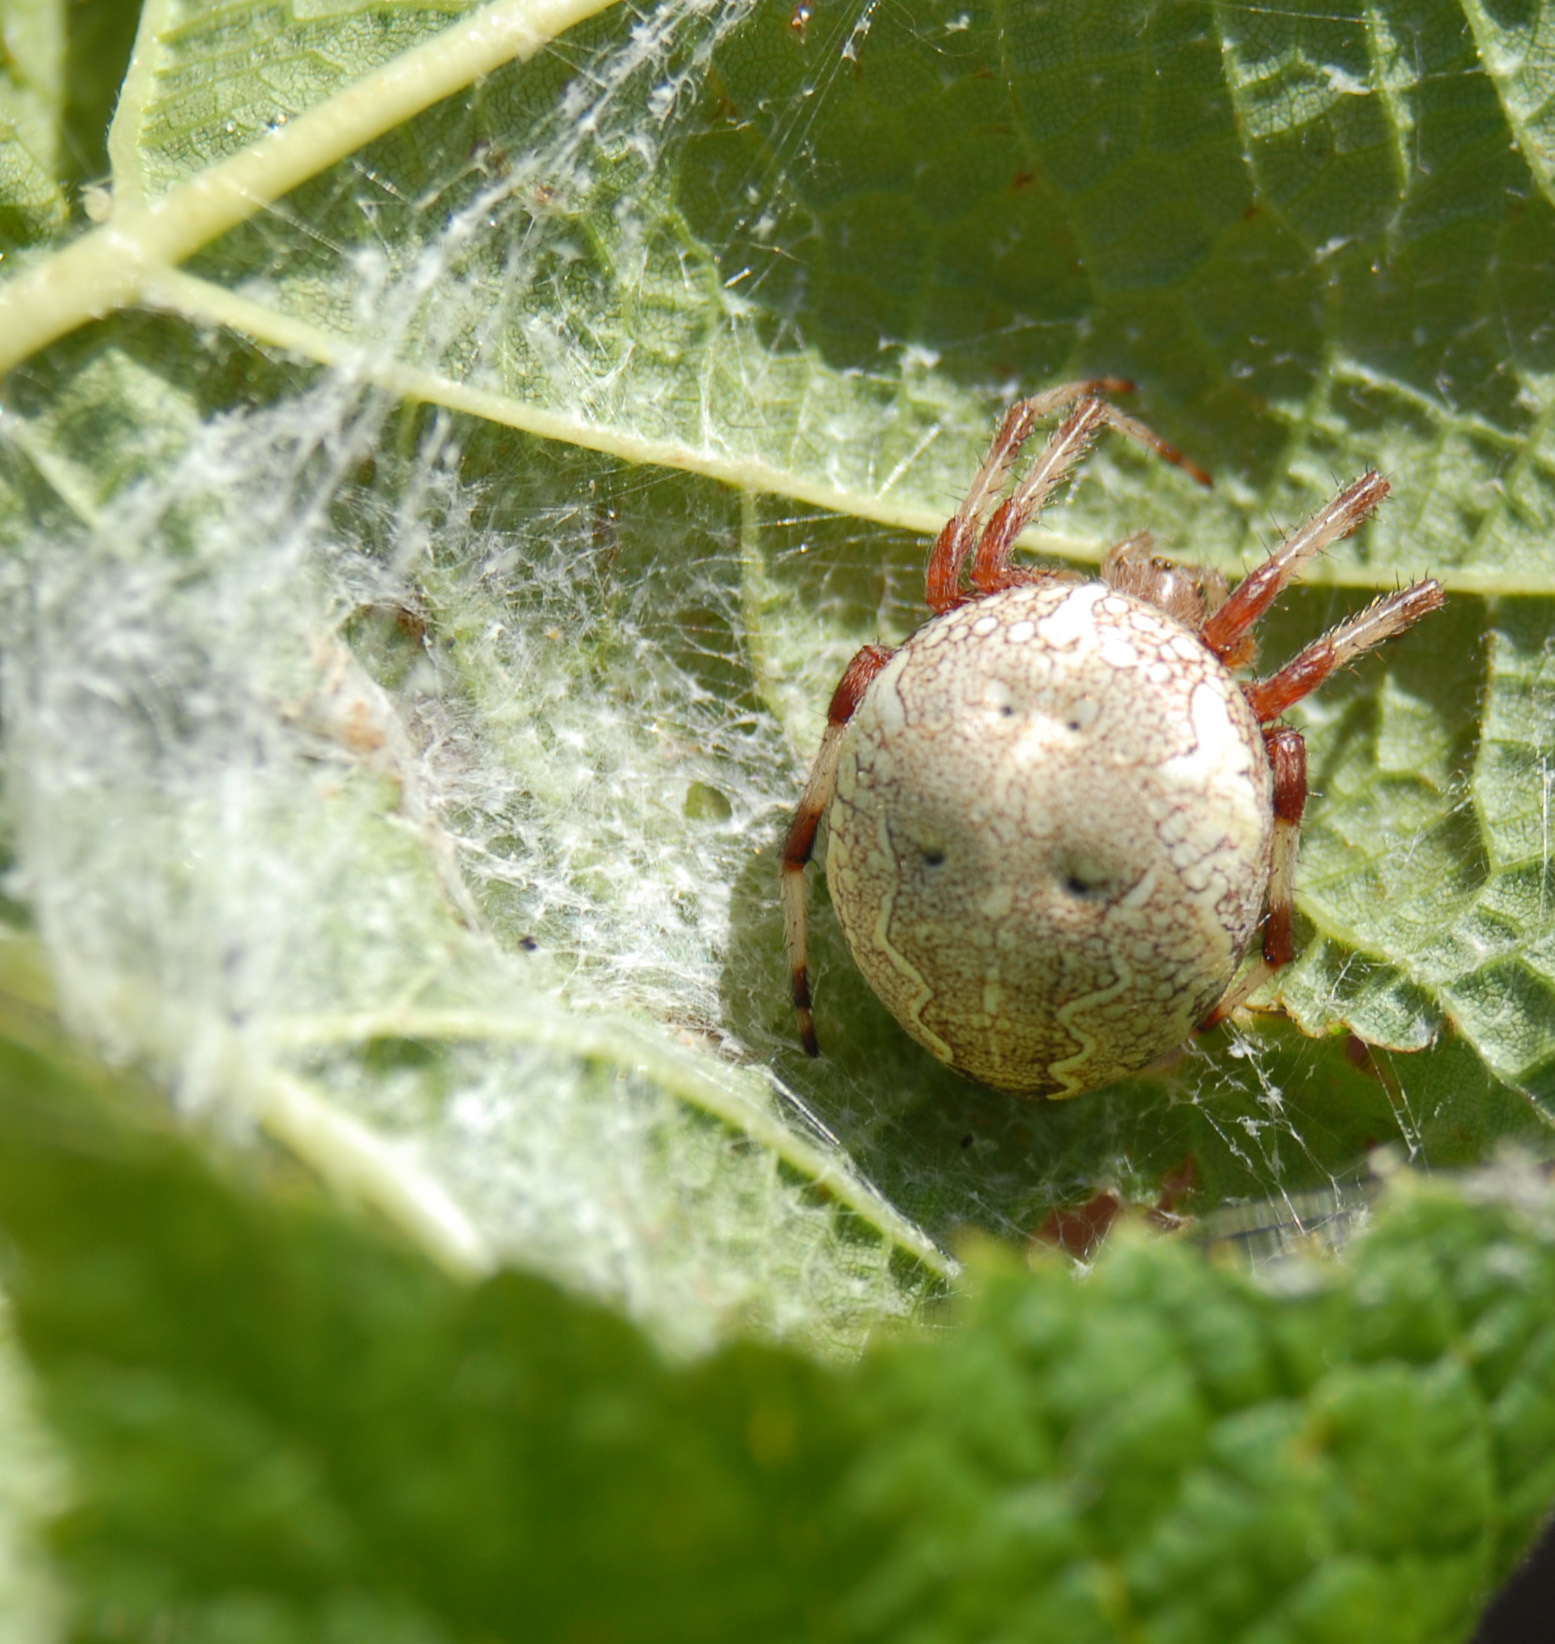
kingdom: Animalia
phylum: Arthropoda
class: Arachnida
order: Araneae
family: Araneidae
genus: Araneus
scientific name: Araneus marmoreus
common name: Marbled orbweaver
